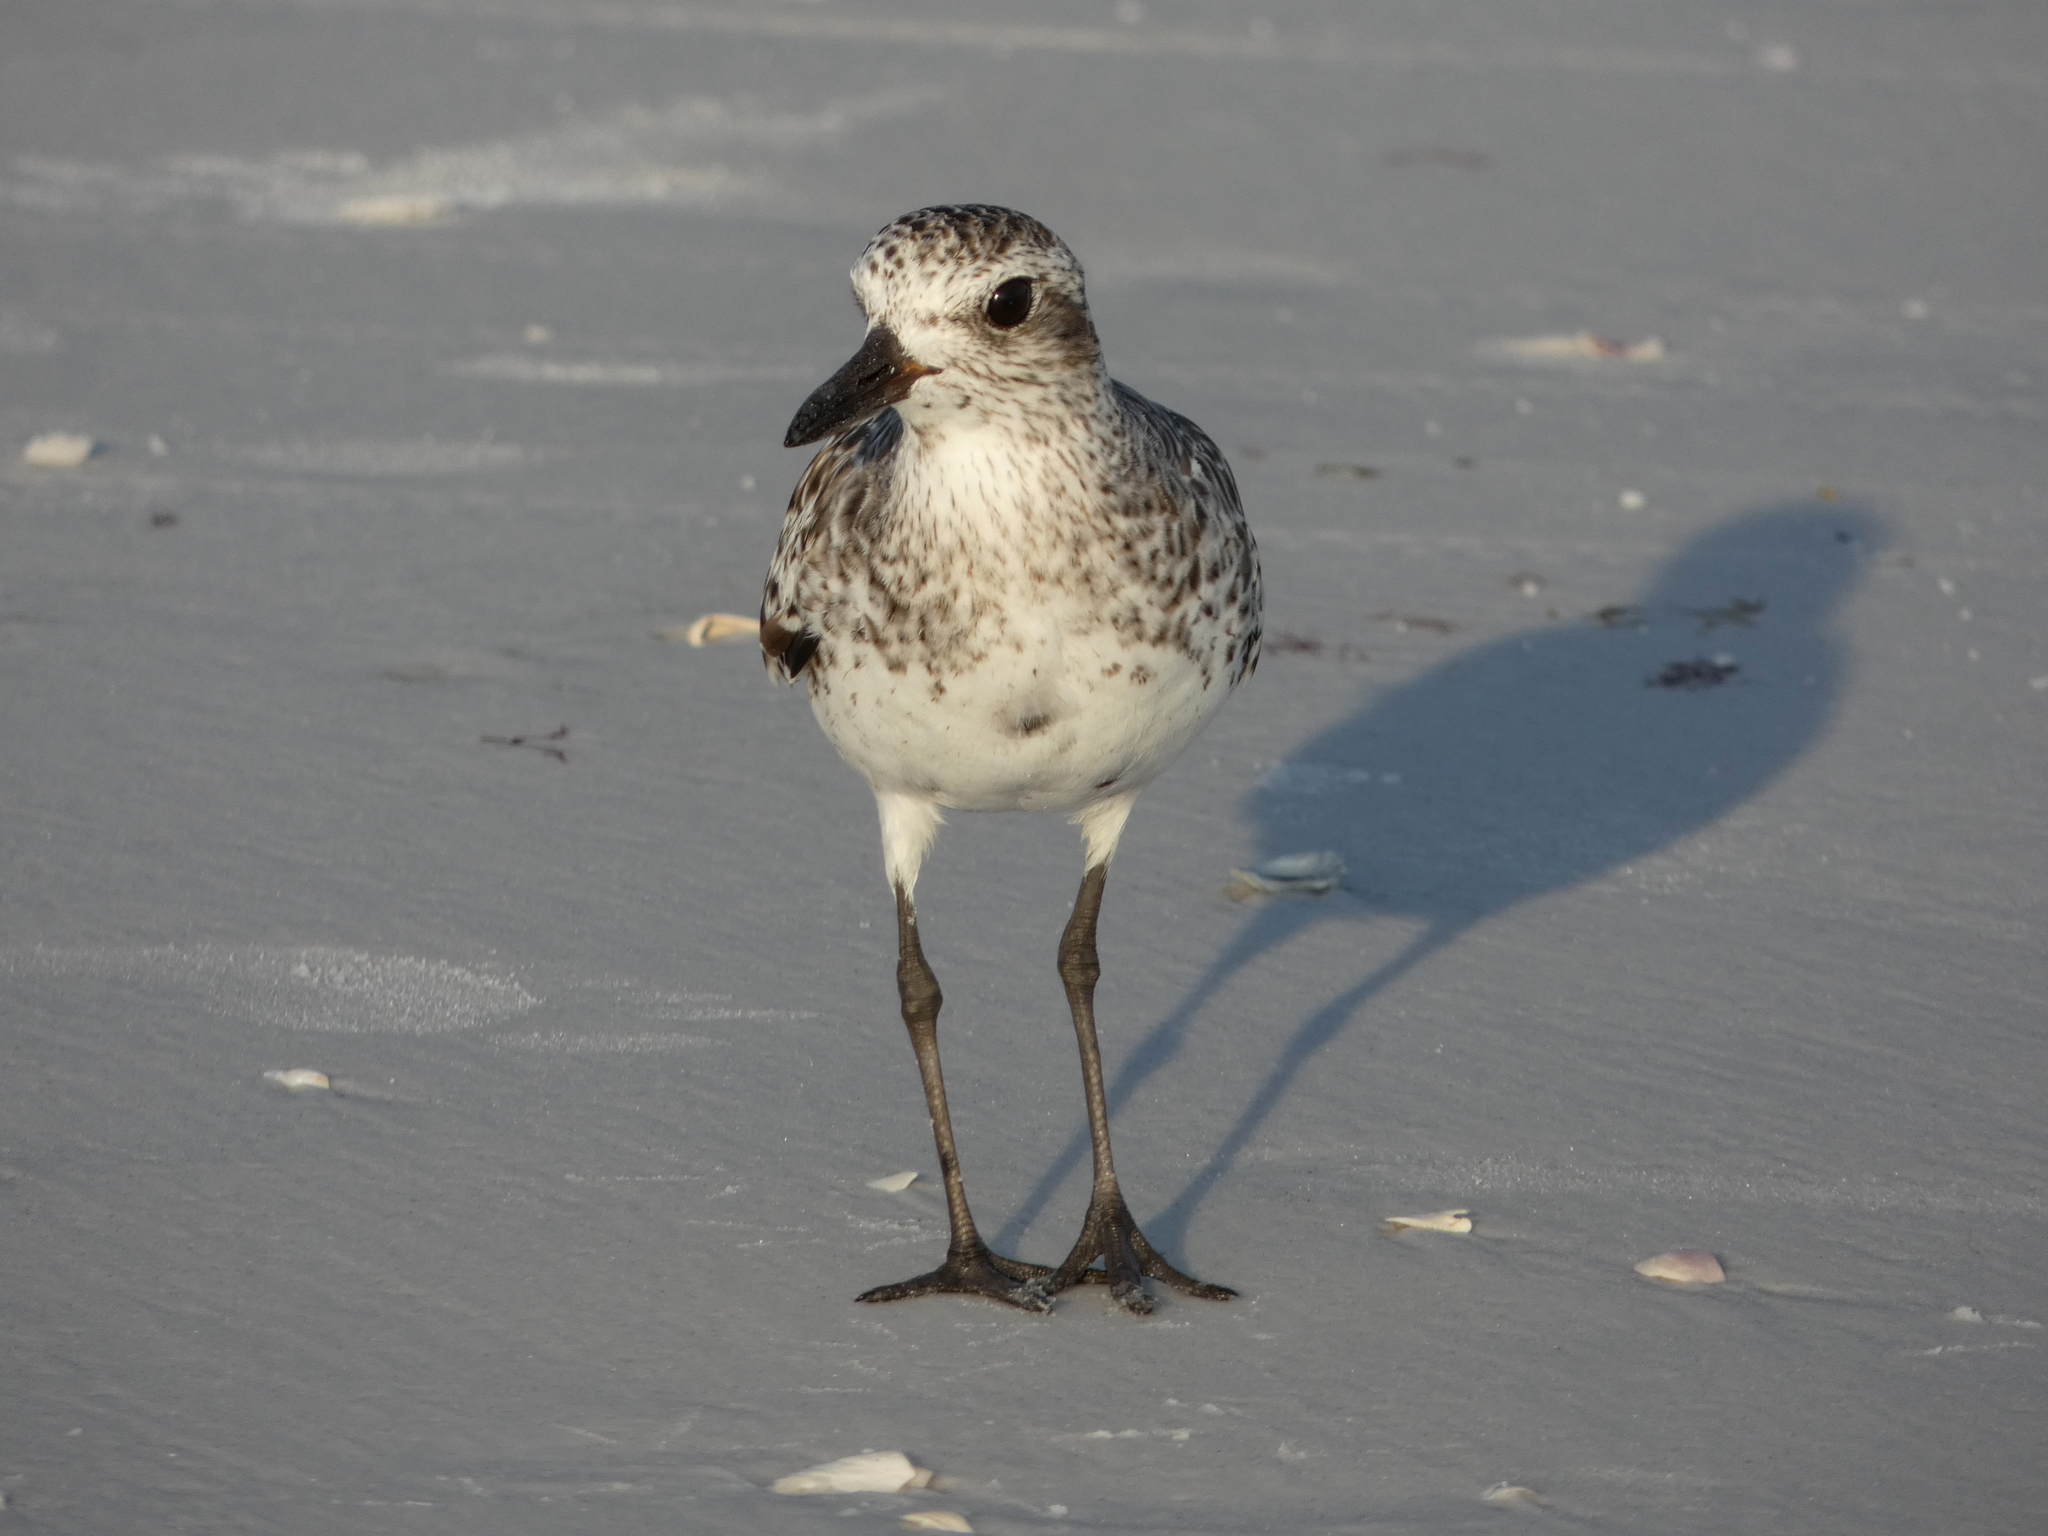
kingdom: Animalia
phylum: Chordata
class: Aves
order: Charadriiformes
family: Charadriidae
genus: Pluvialis
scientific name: Pluvialis squatarola
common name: Grey plover
